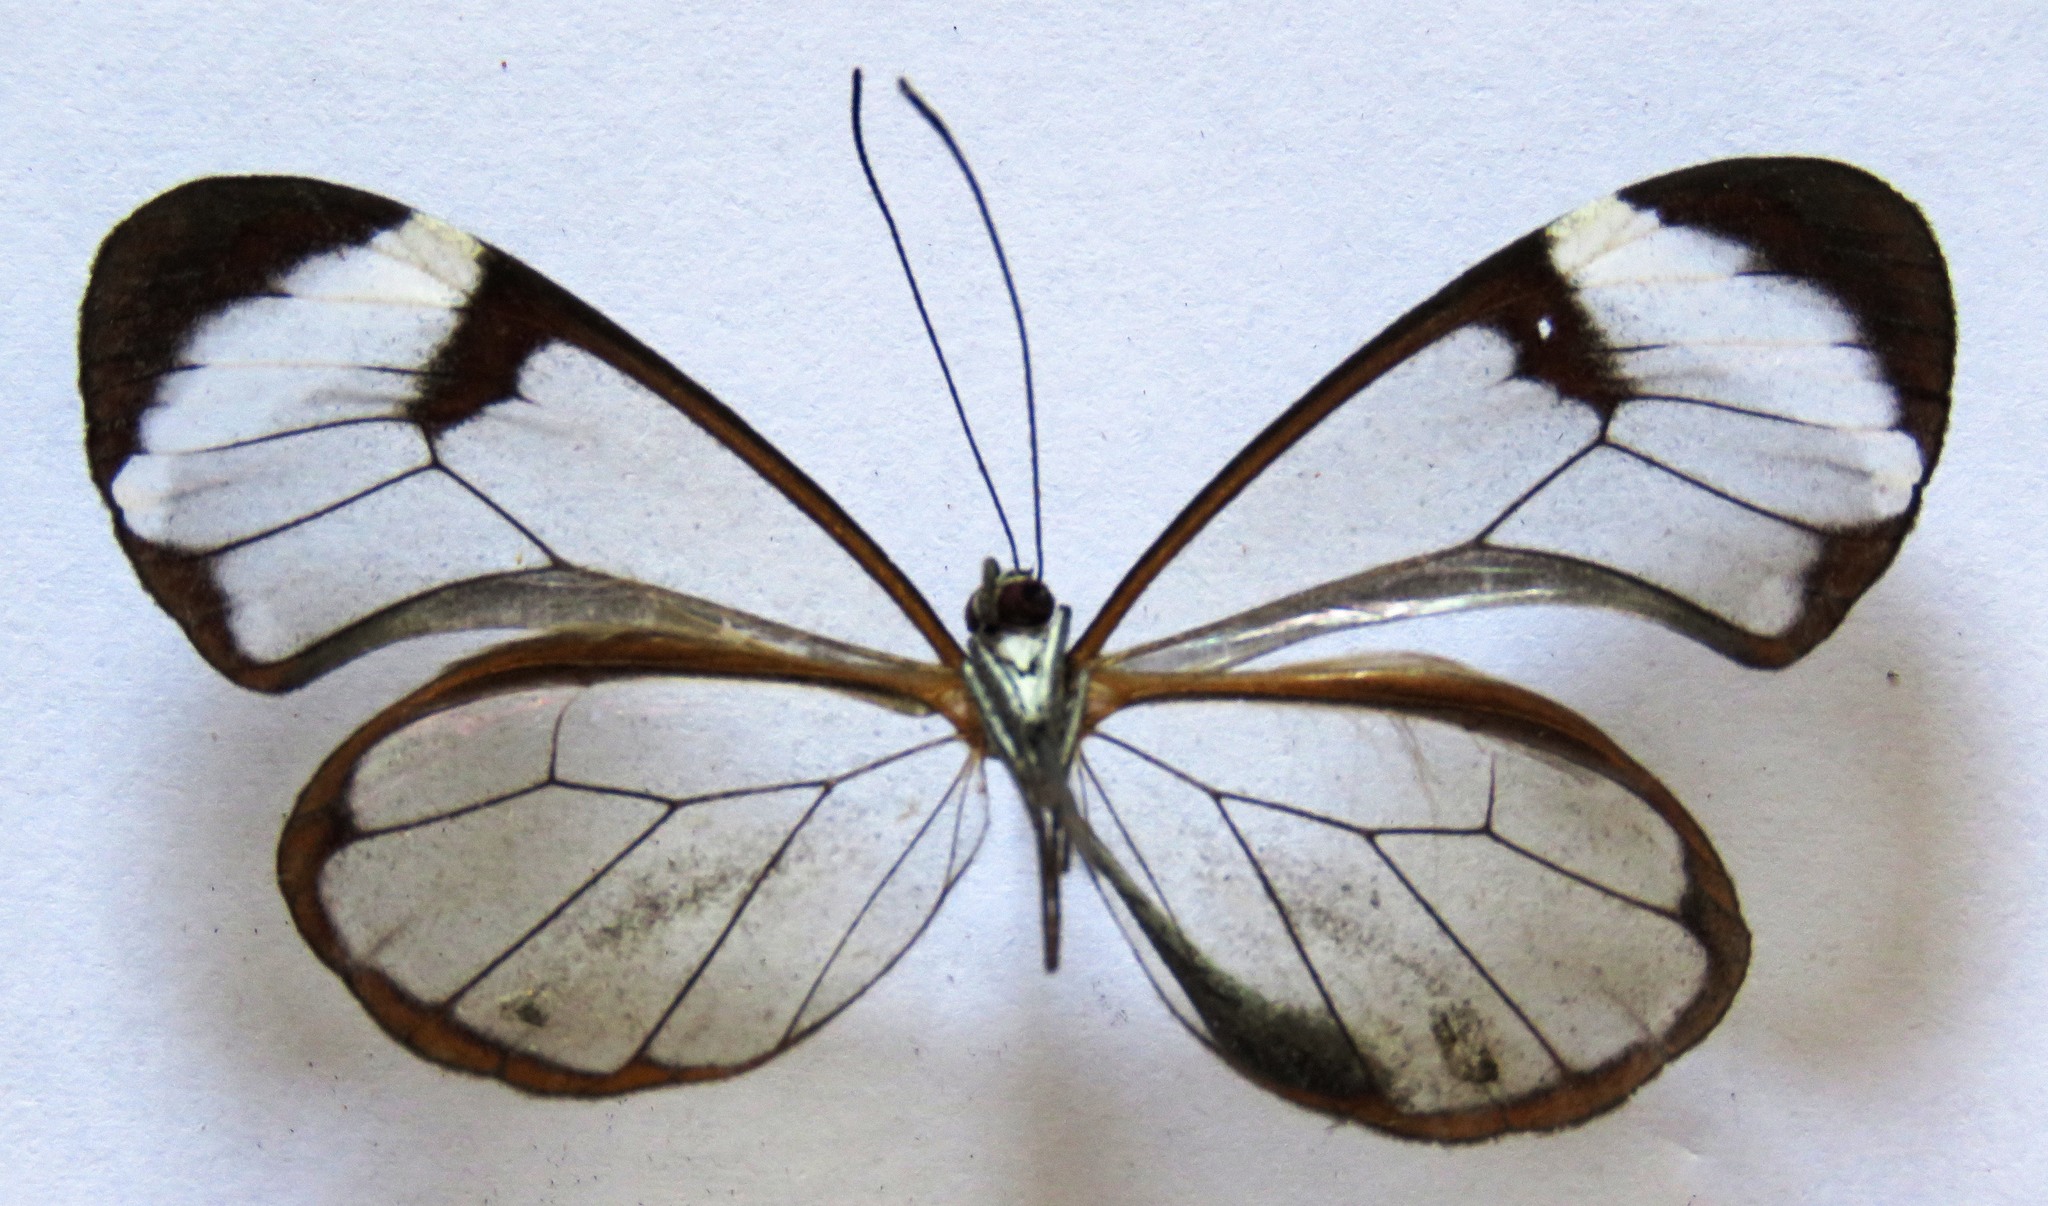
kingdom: Animalia
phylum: Arthropoda
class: Insecta
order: Lepidoptera
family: Nymphalidae
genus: Greta
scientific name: Greta morgane
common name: Thick-tipped greta
